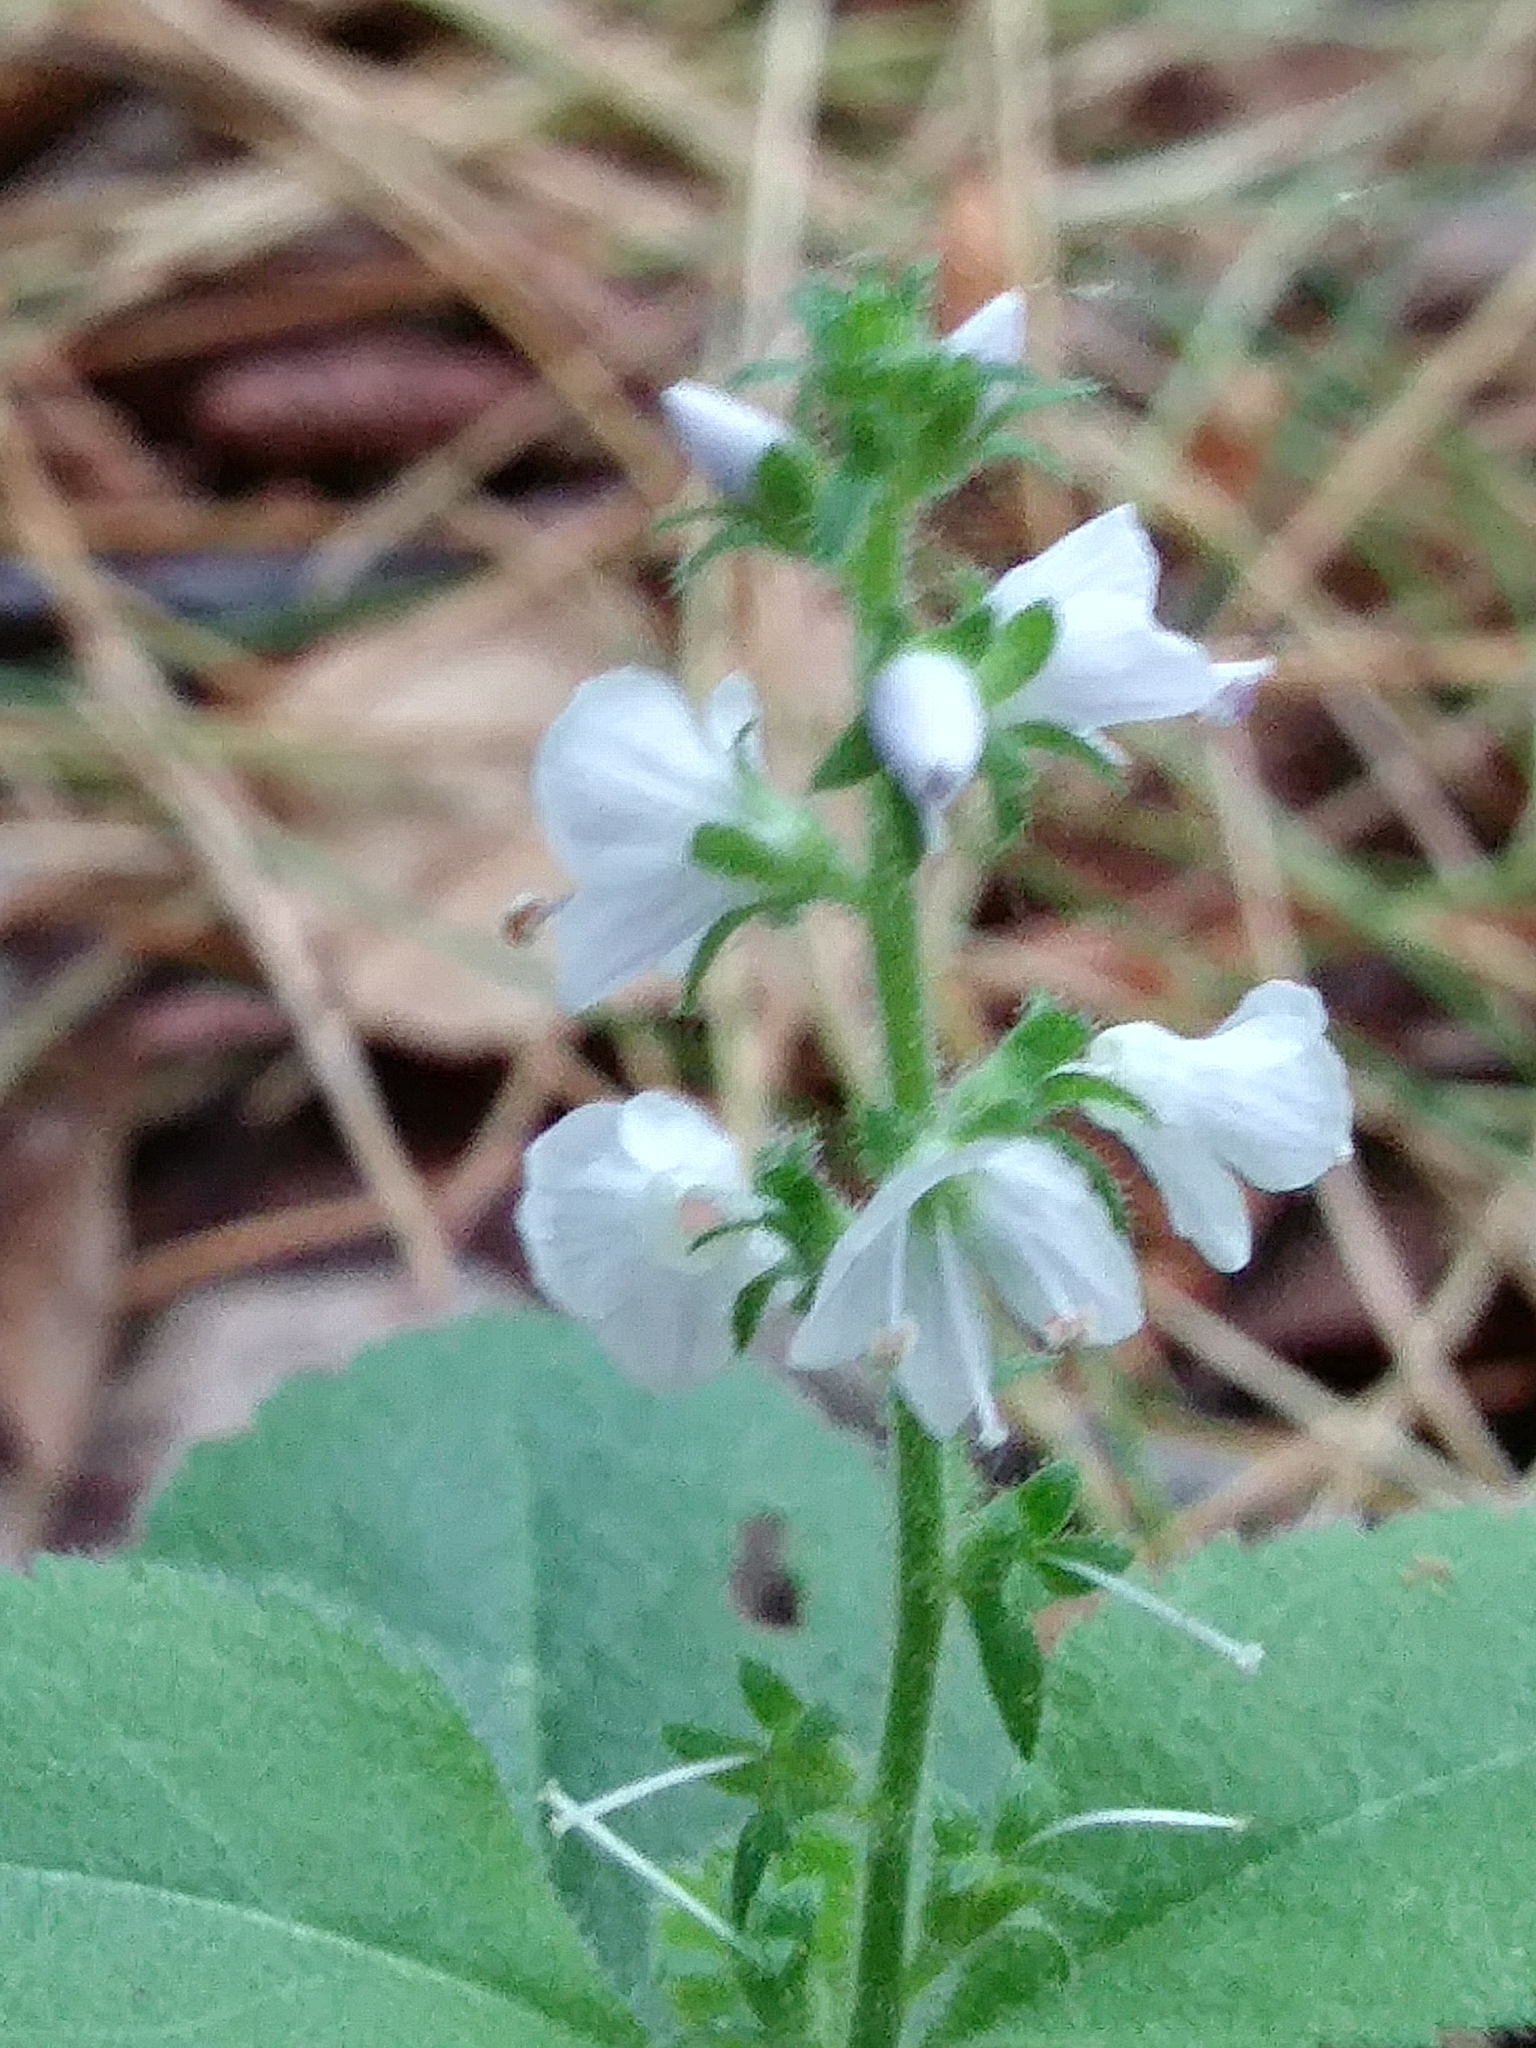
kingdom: Plantae
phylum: Tracheophyta
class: Magnoliopsida
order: Lamiales
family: Plantaginaceae
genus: Veronica
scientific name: Veronica officinalis
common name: Common speedwell
